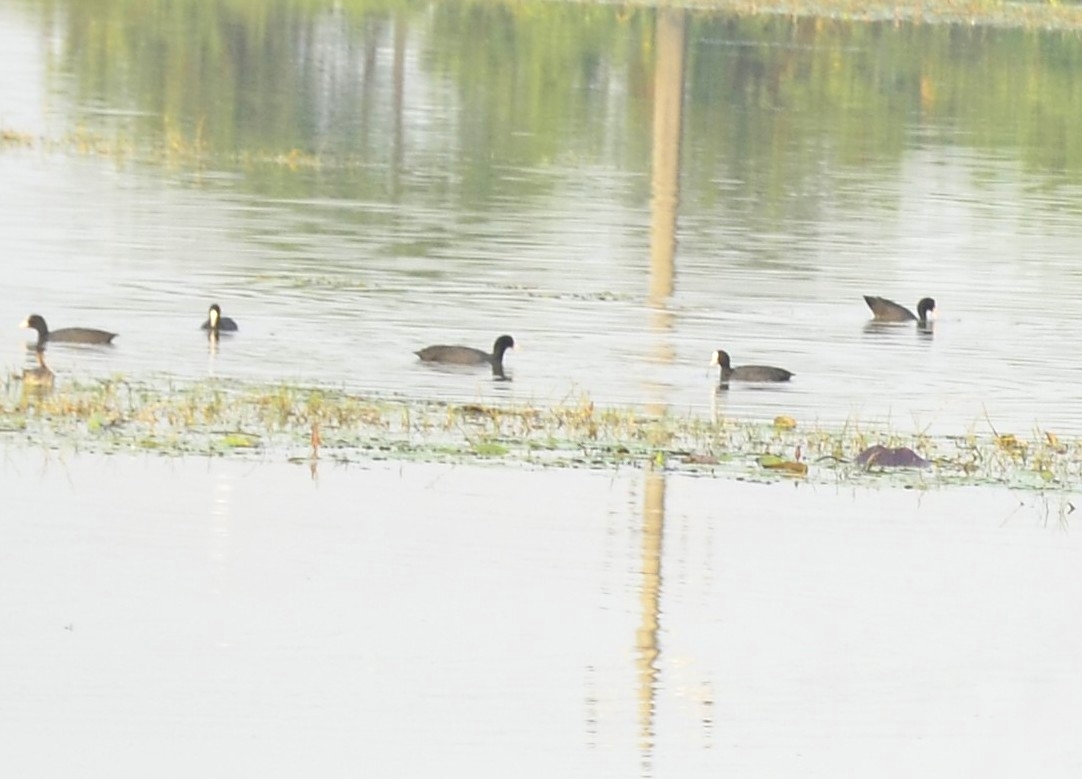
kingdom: Animalia
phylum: Chordata
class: Aves
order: Gruiformes
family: Rallidae
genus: Fulica
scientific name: Fulica atra
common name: Eurasian coot
